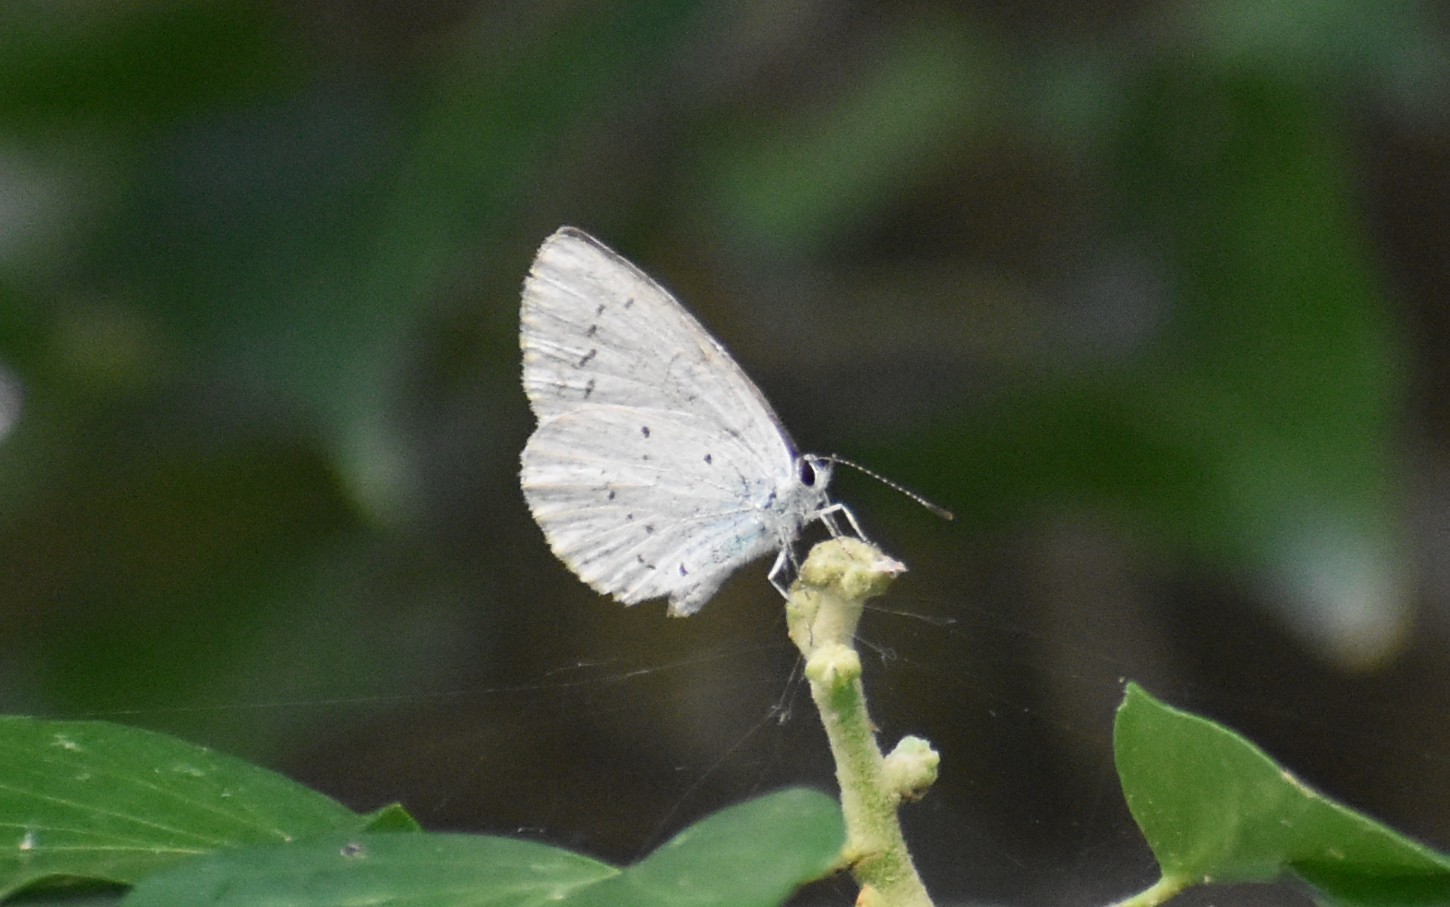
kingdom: Animalia
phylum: Arthropoda
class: Insecta
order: Lepidoptera
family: Lycaenidae
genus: Celastrina
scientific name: Celastrina argiolus
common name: Holly blue
